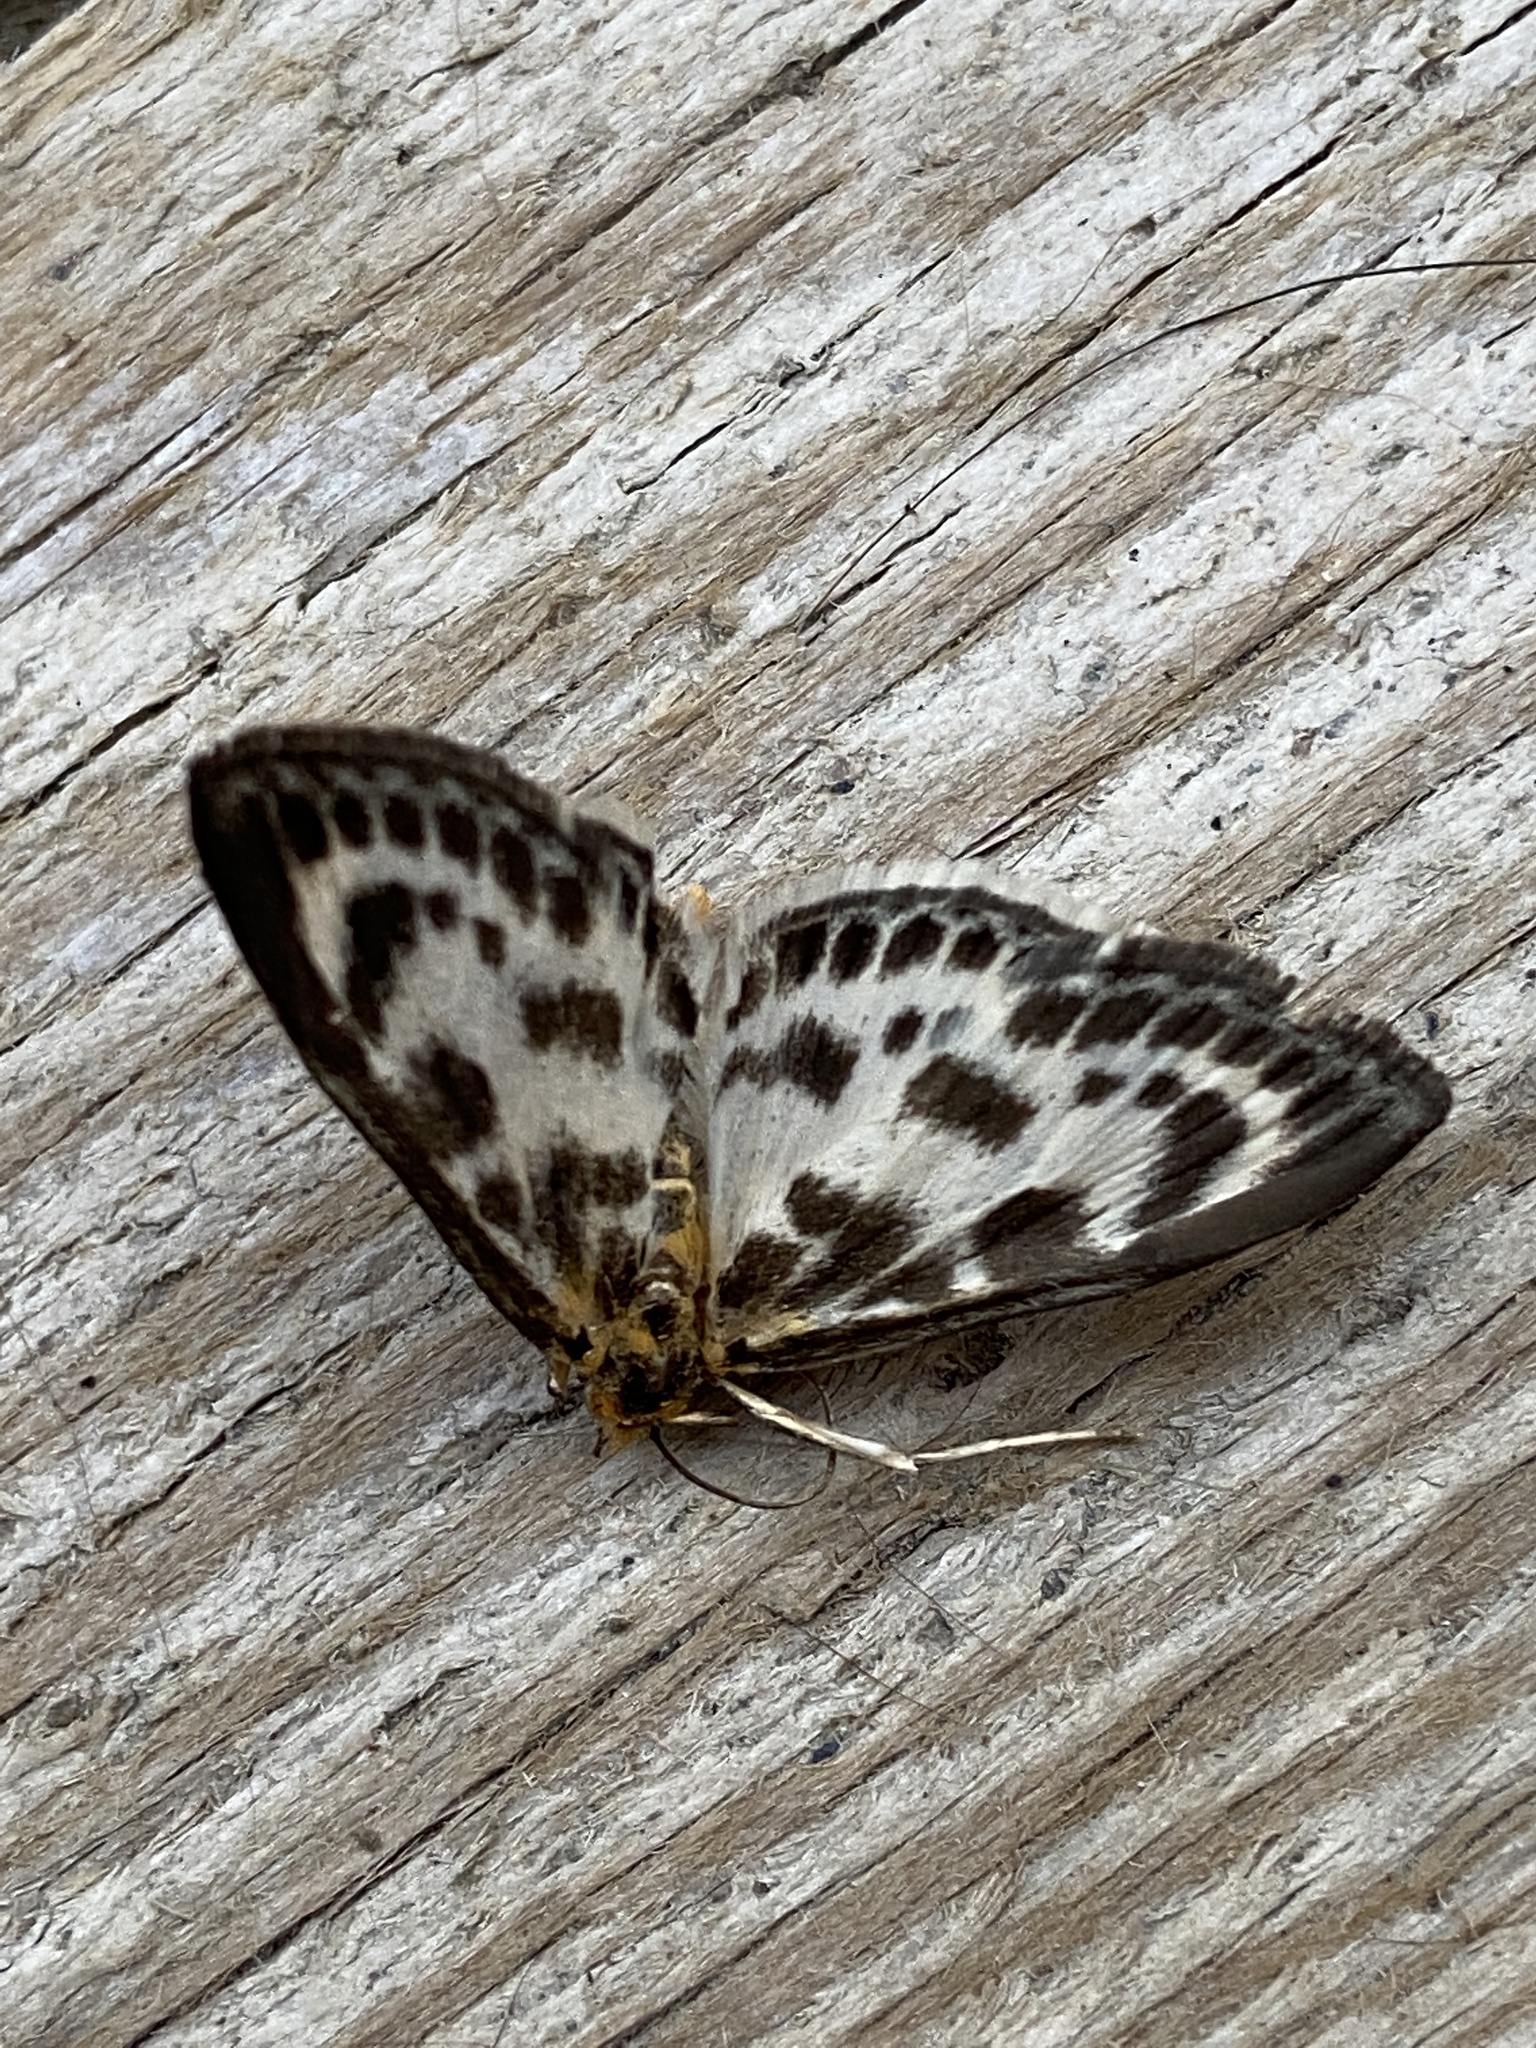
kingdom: Animalia
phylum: Arthropoda
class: Insecta
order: Lepidoptera
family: Crambidae
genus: Anania
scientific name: Anania hortulata
